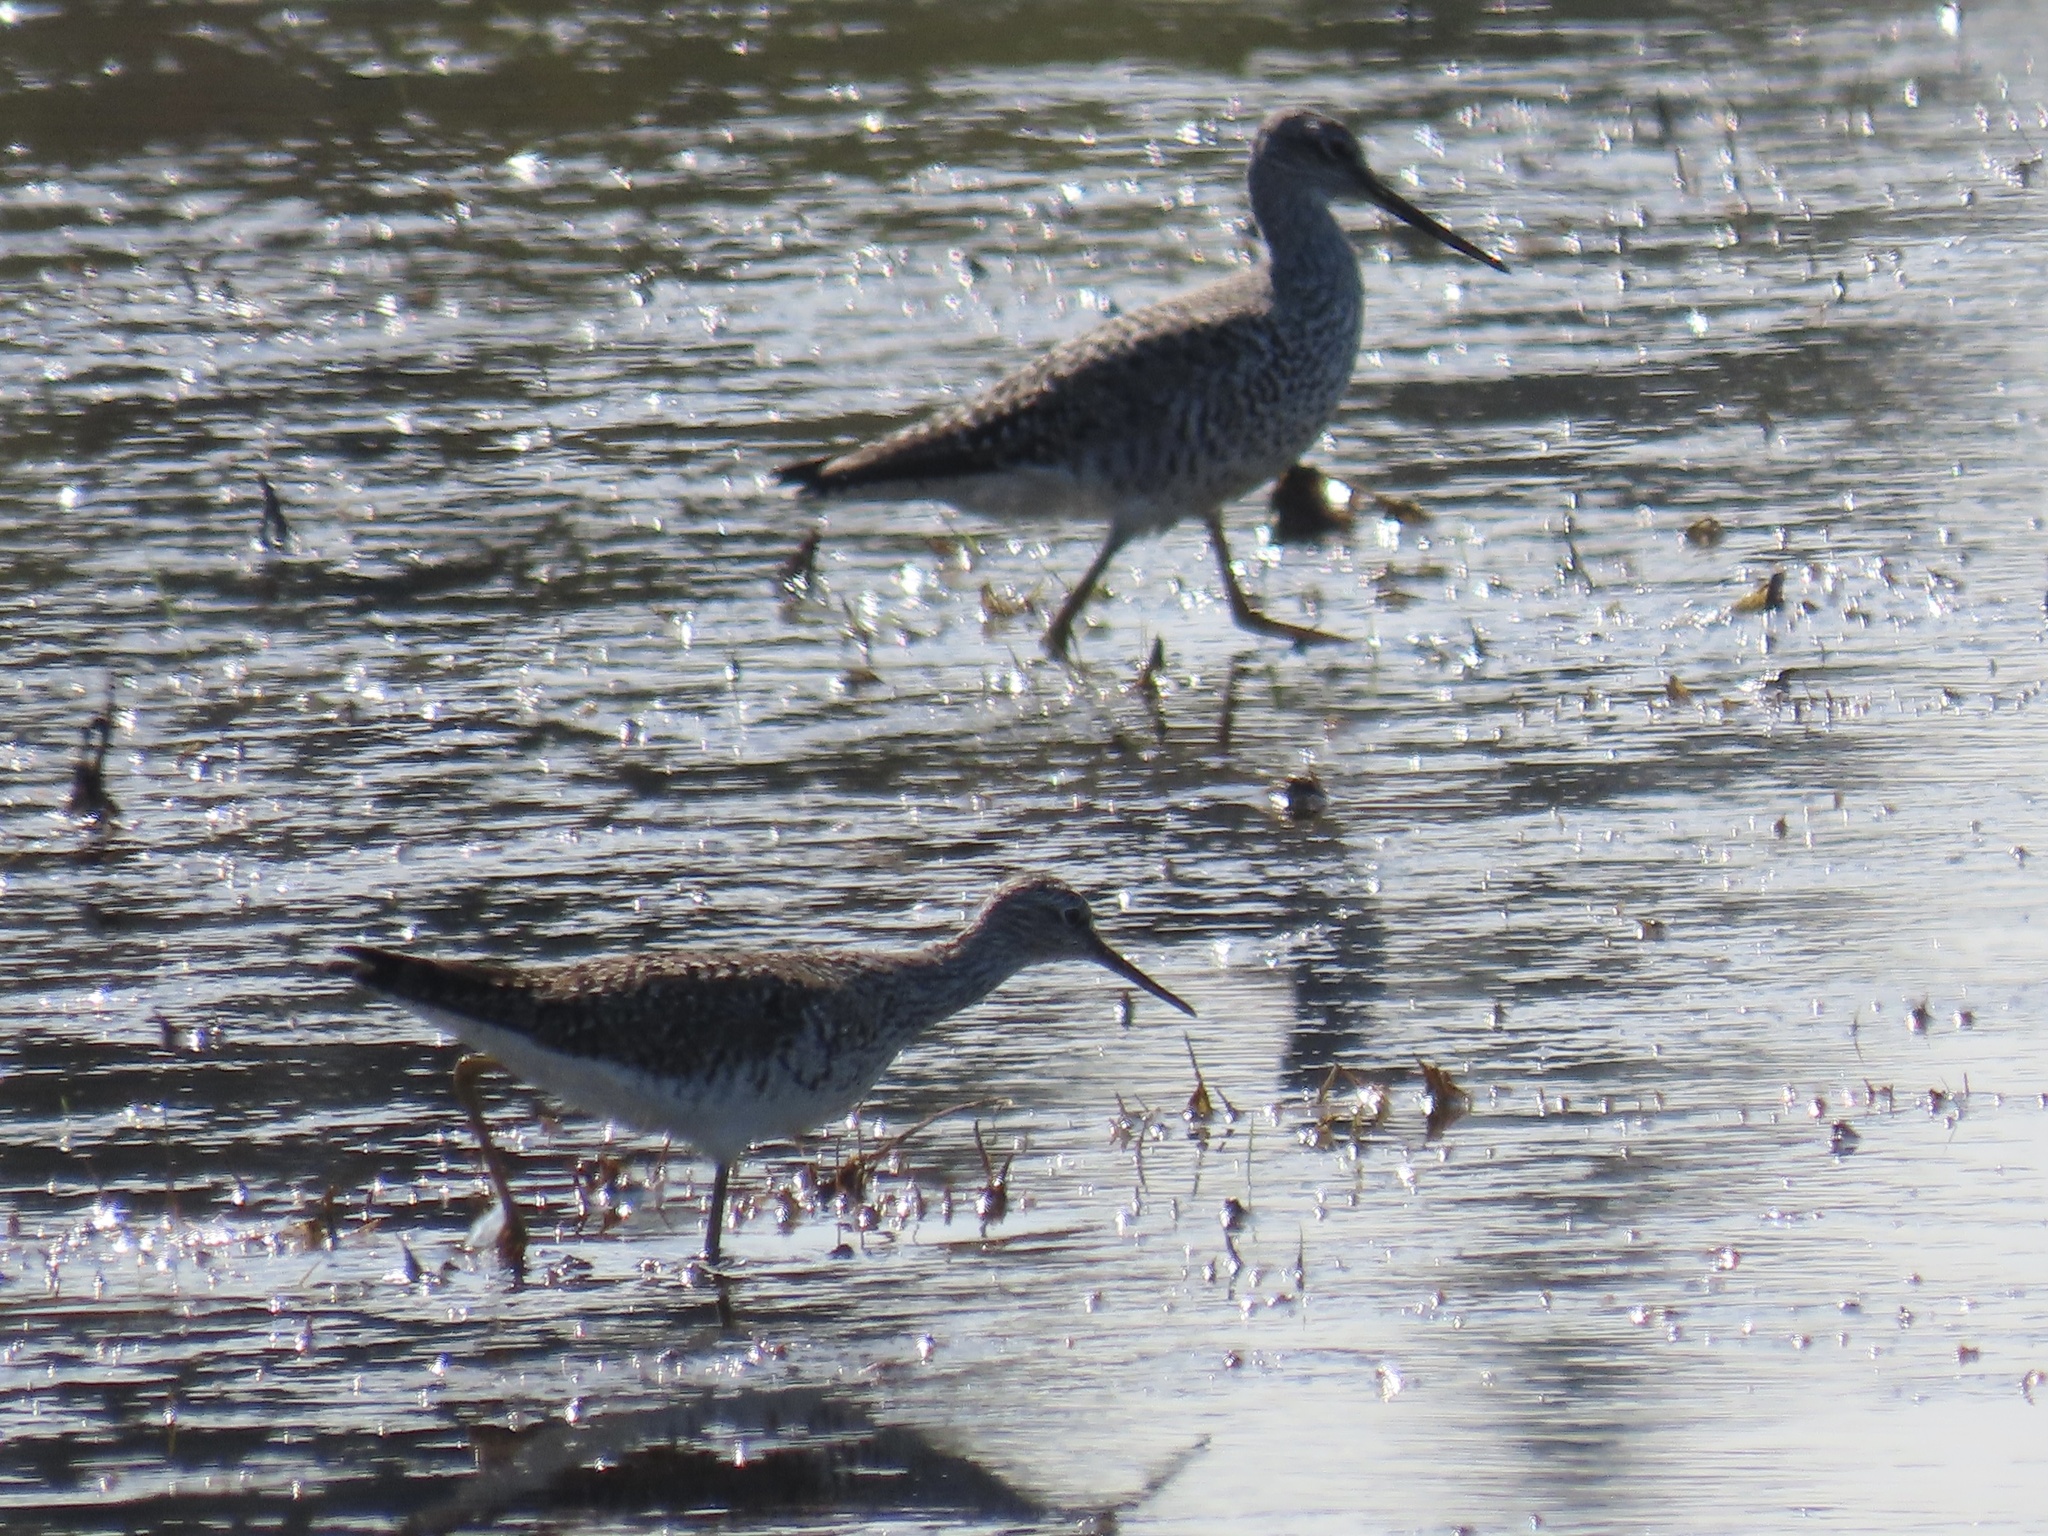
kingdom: Animalia
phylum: Chordata
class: Aves
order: Charadriiformes
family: Scolopacidae
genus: Tringa
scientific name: Tringa melanoleuca
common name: Greater yellowlegs
